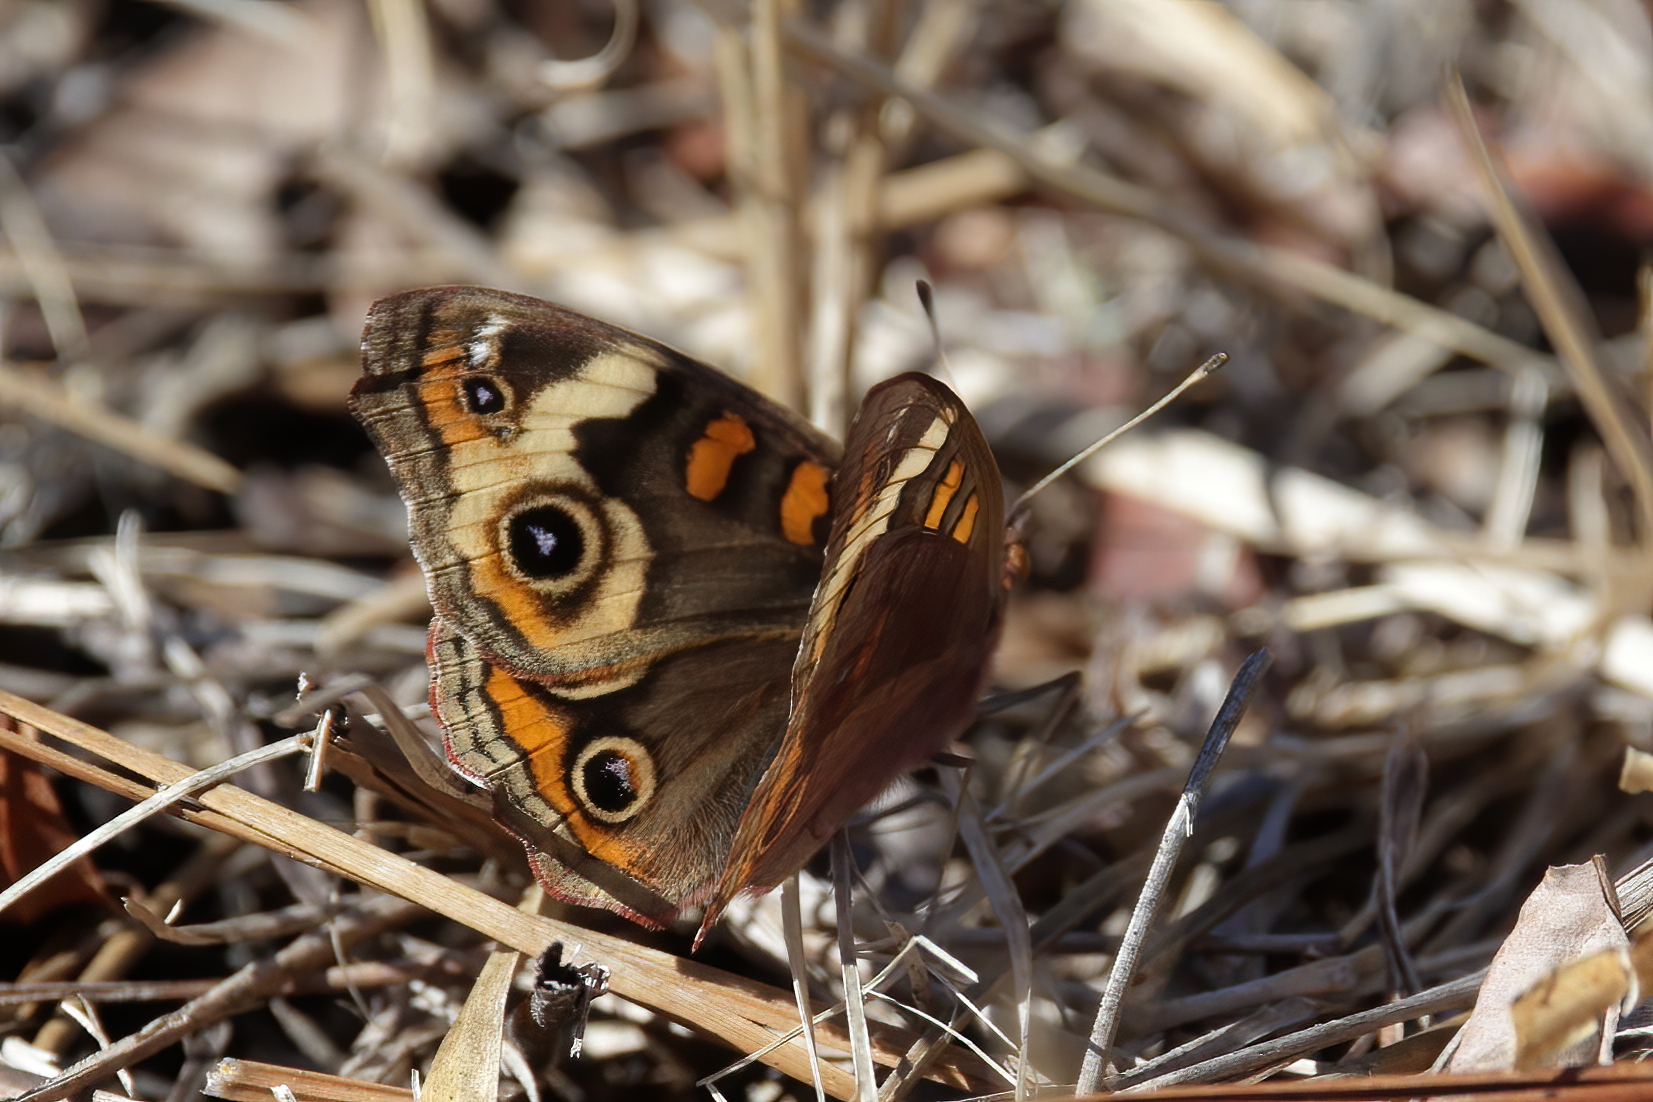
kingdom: Animalia
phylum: Arthropoda
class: Insecta
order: Lepidoptera
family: Nymphalidae
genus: Junonia
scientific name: Junonia coenia
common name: Common buckeye
